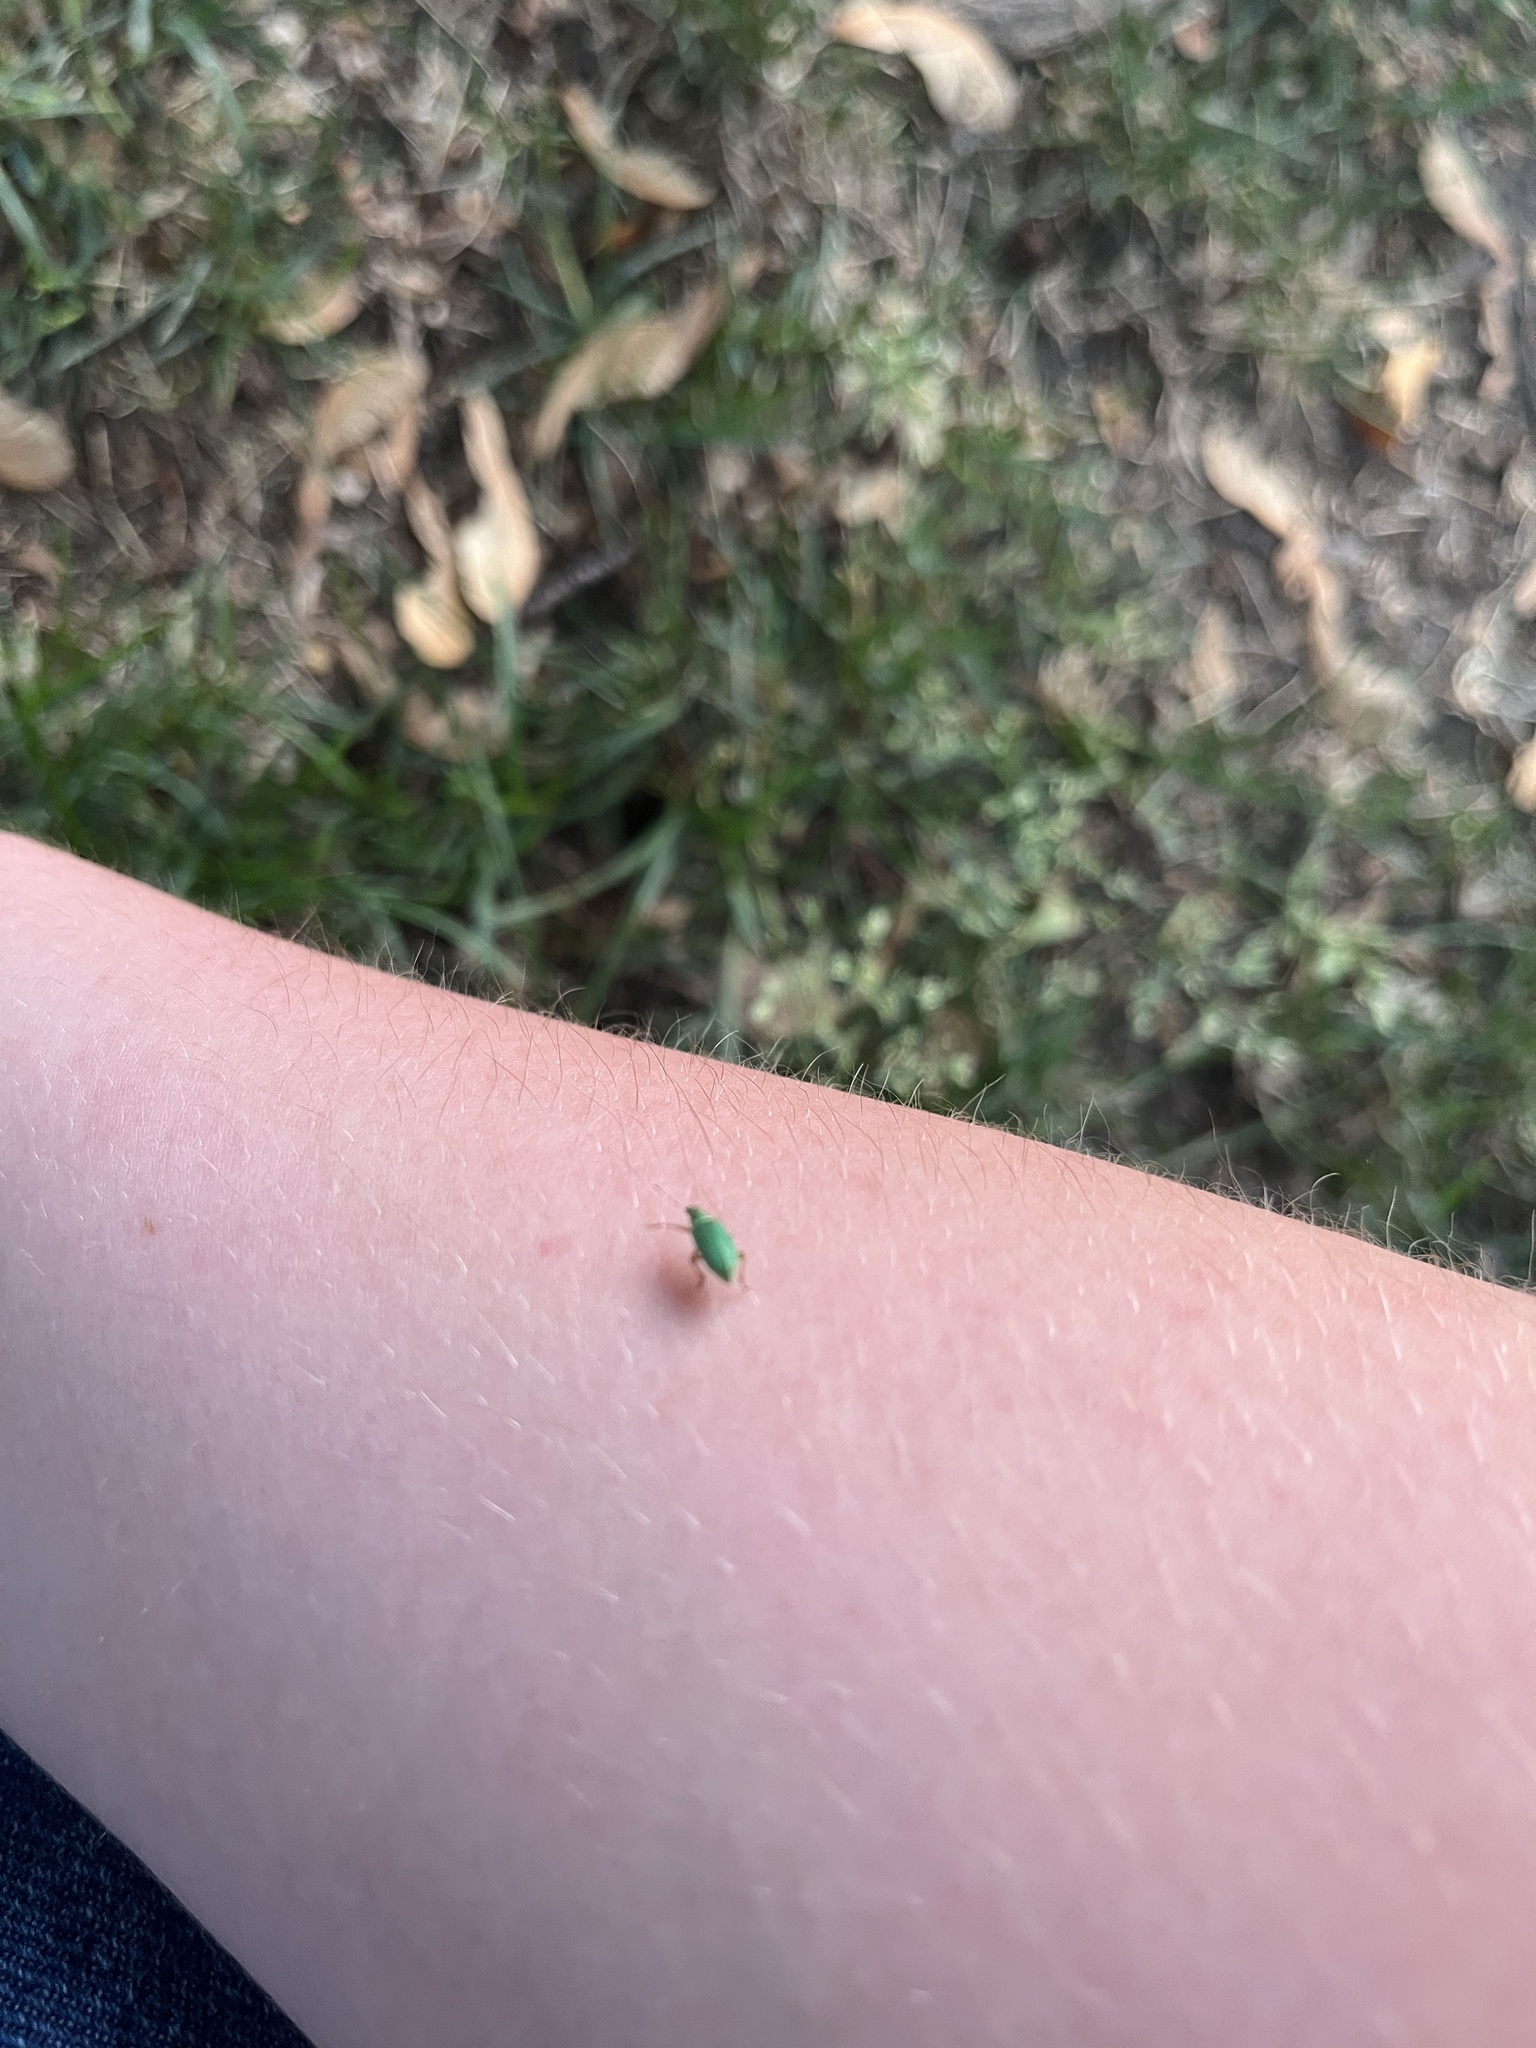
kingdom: Animalia
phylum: Arthropoda
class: Insecta
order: Coleoptera
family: Curculionidae
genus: Polydrusus
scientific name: Polydrusus formosus
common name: Weevil
